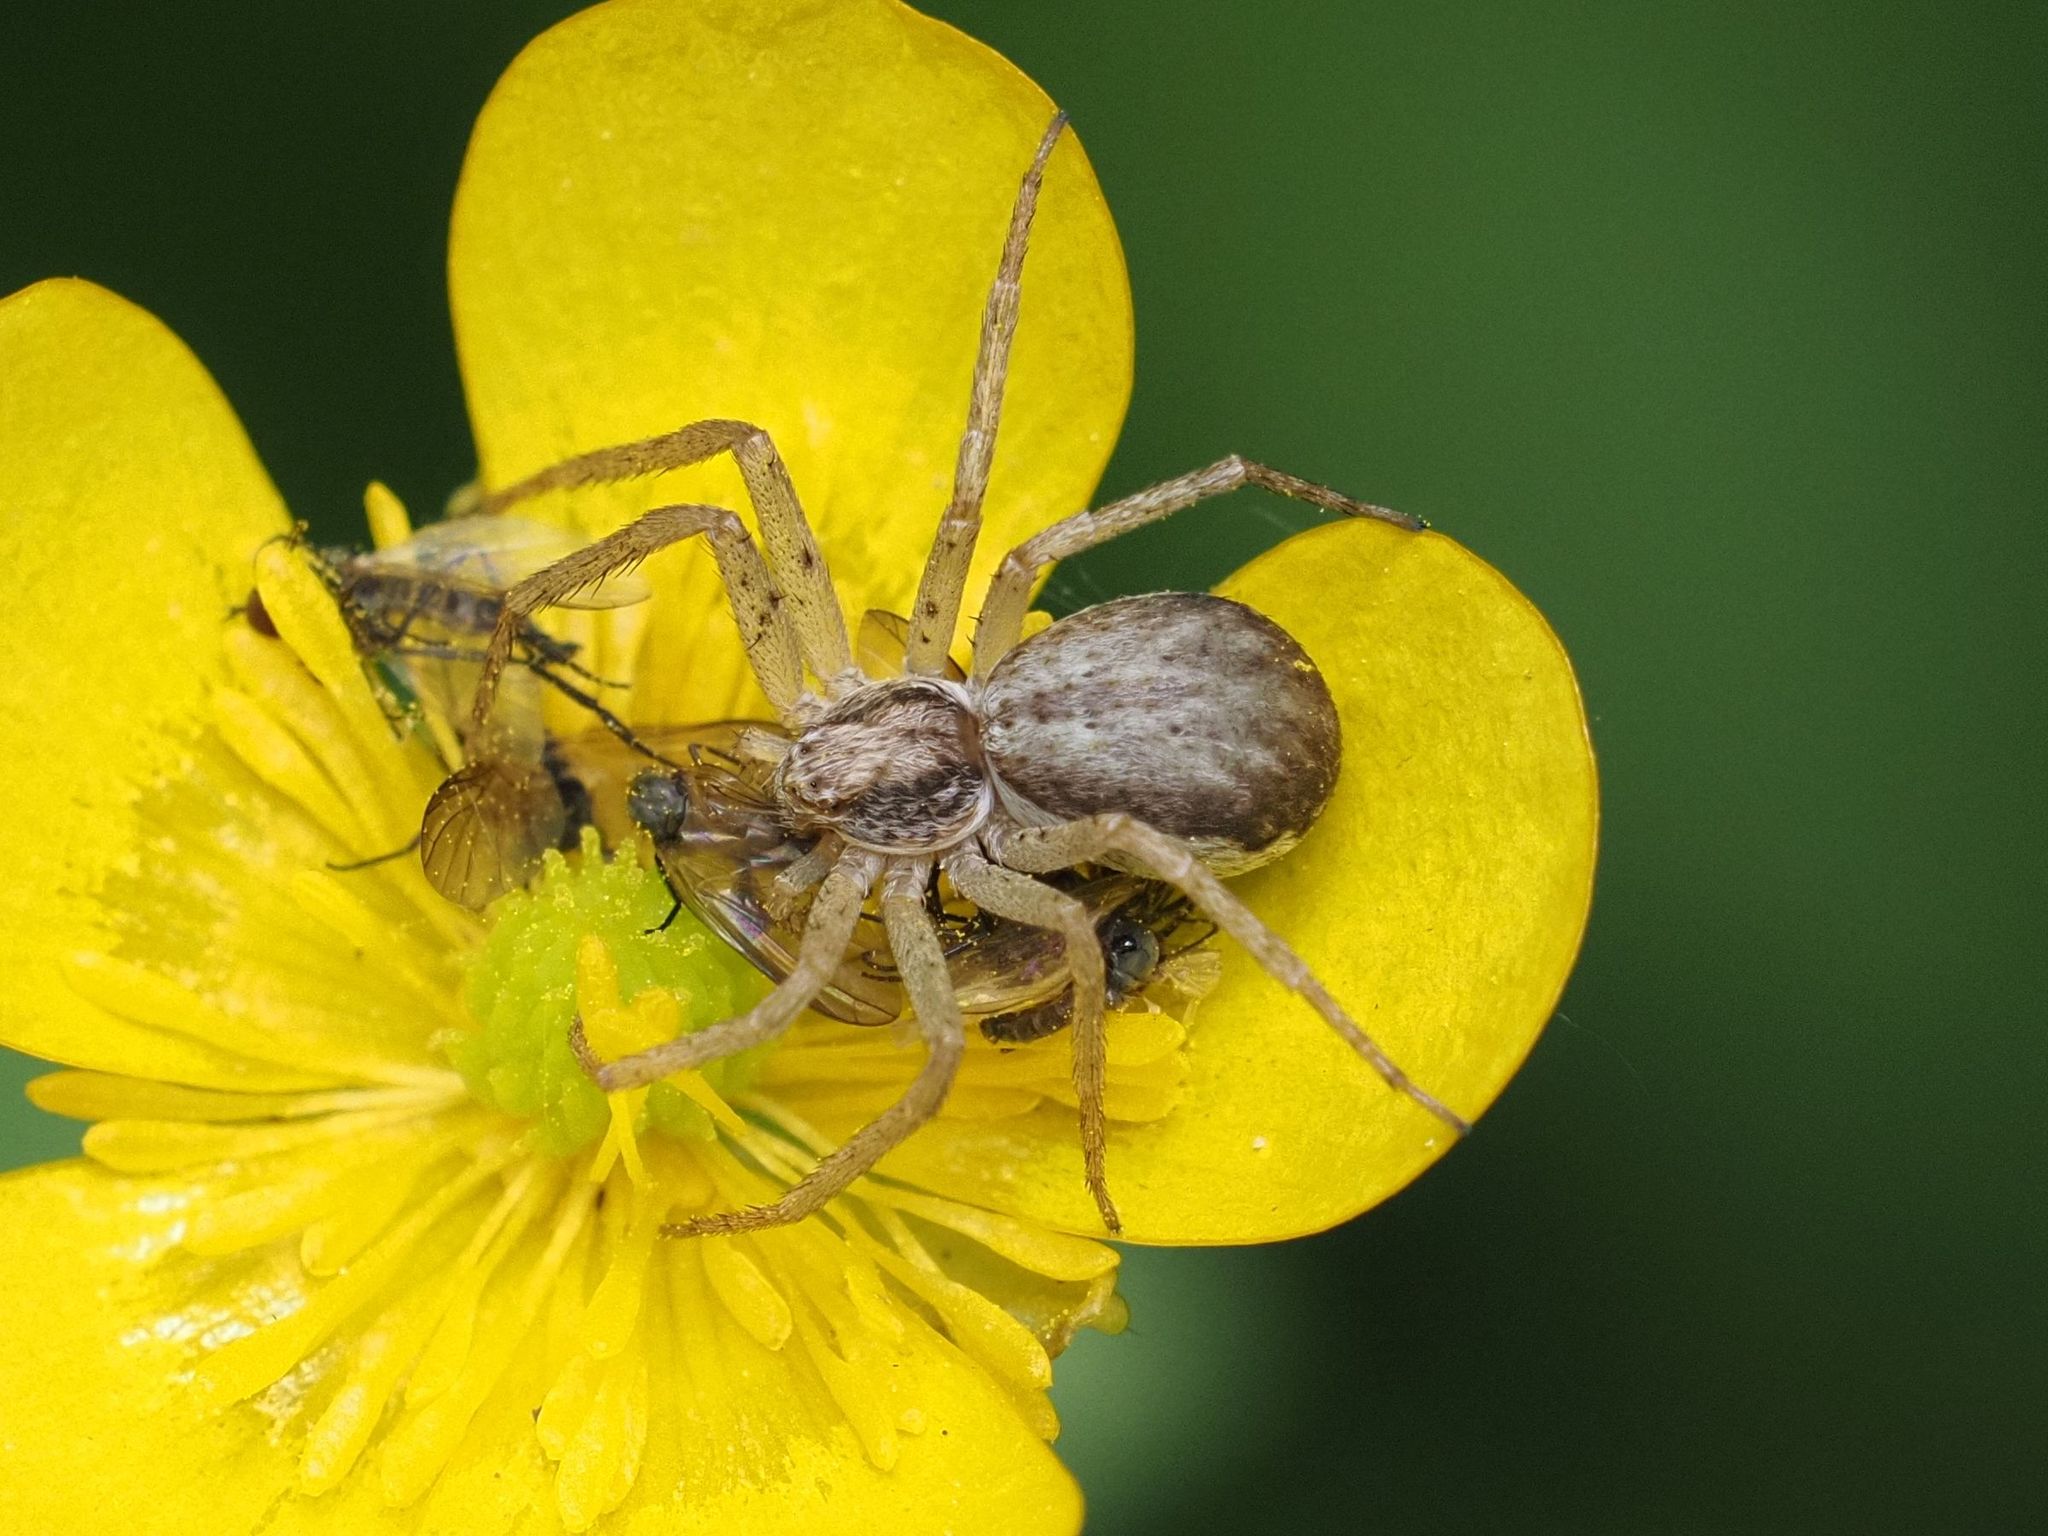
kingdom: Animalia
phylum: Arthropoda
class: Arachnida
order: Araneae
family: Philodromidae
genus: Philodromus
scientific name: Philodromus dispar
